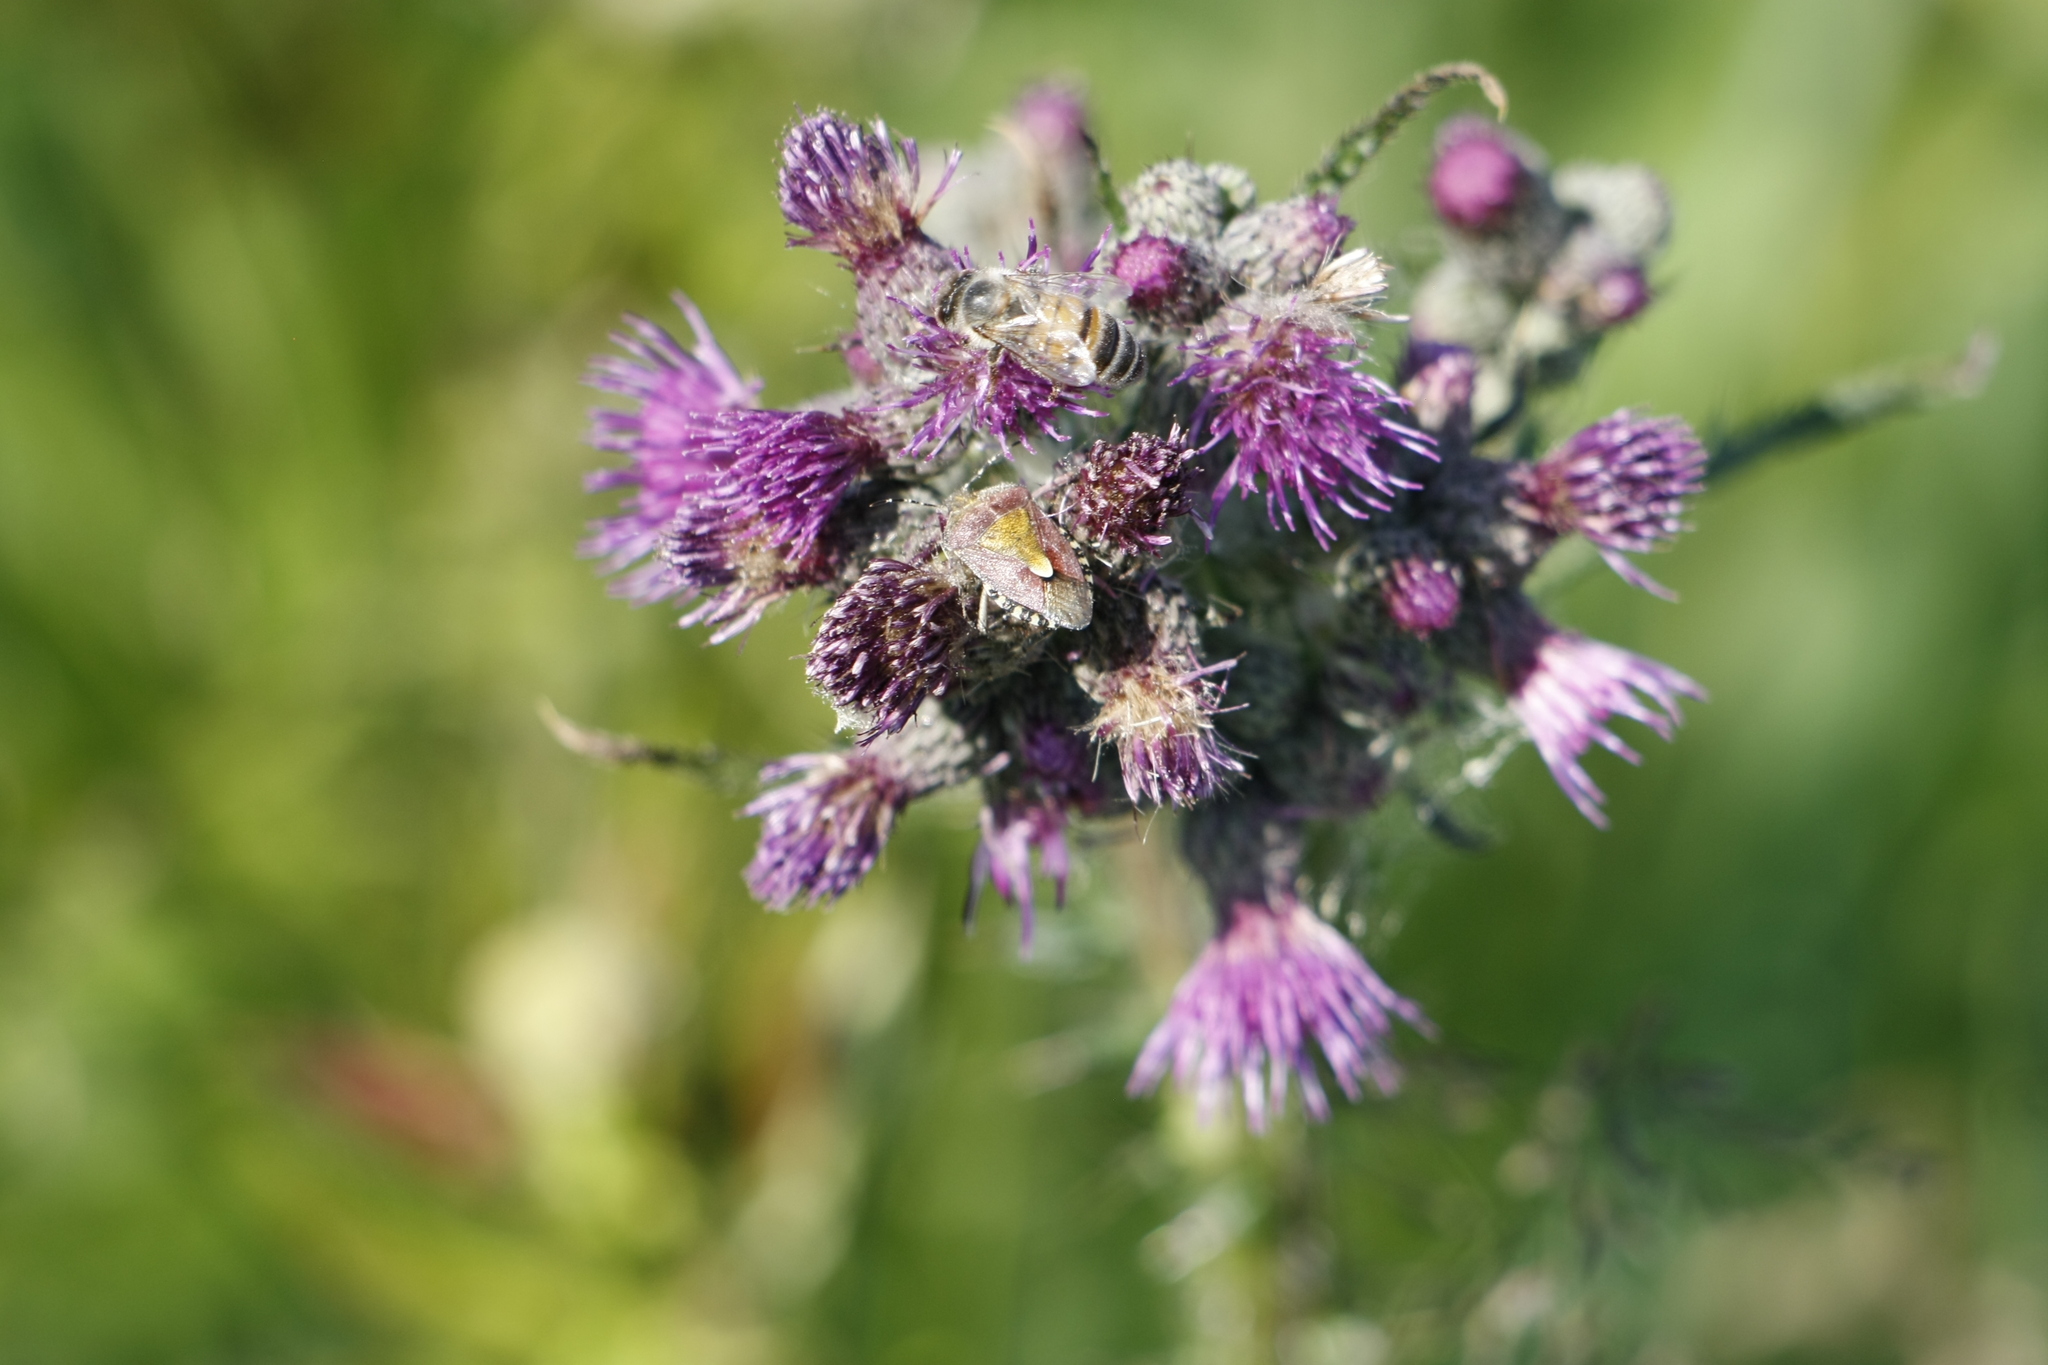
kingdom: Animalia
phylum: Arthropoda
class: Insecta
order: Hemiptera
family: Pentatomidae
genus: Dolycoris
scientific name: Dolycoris baccarum
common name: Sloe bug
